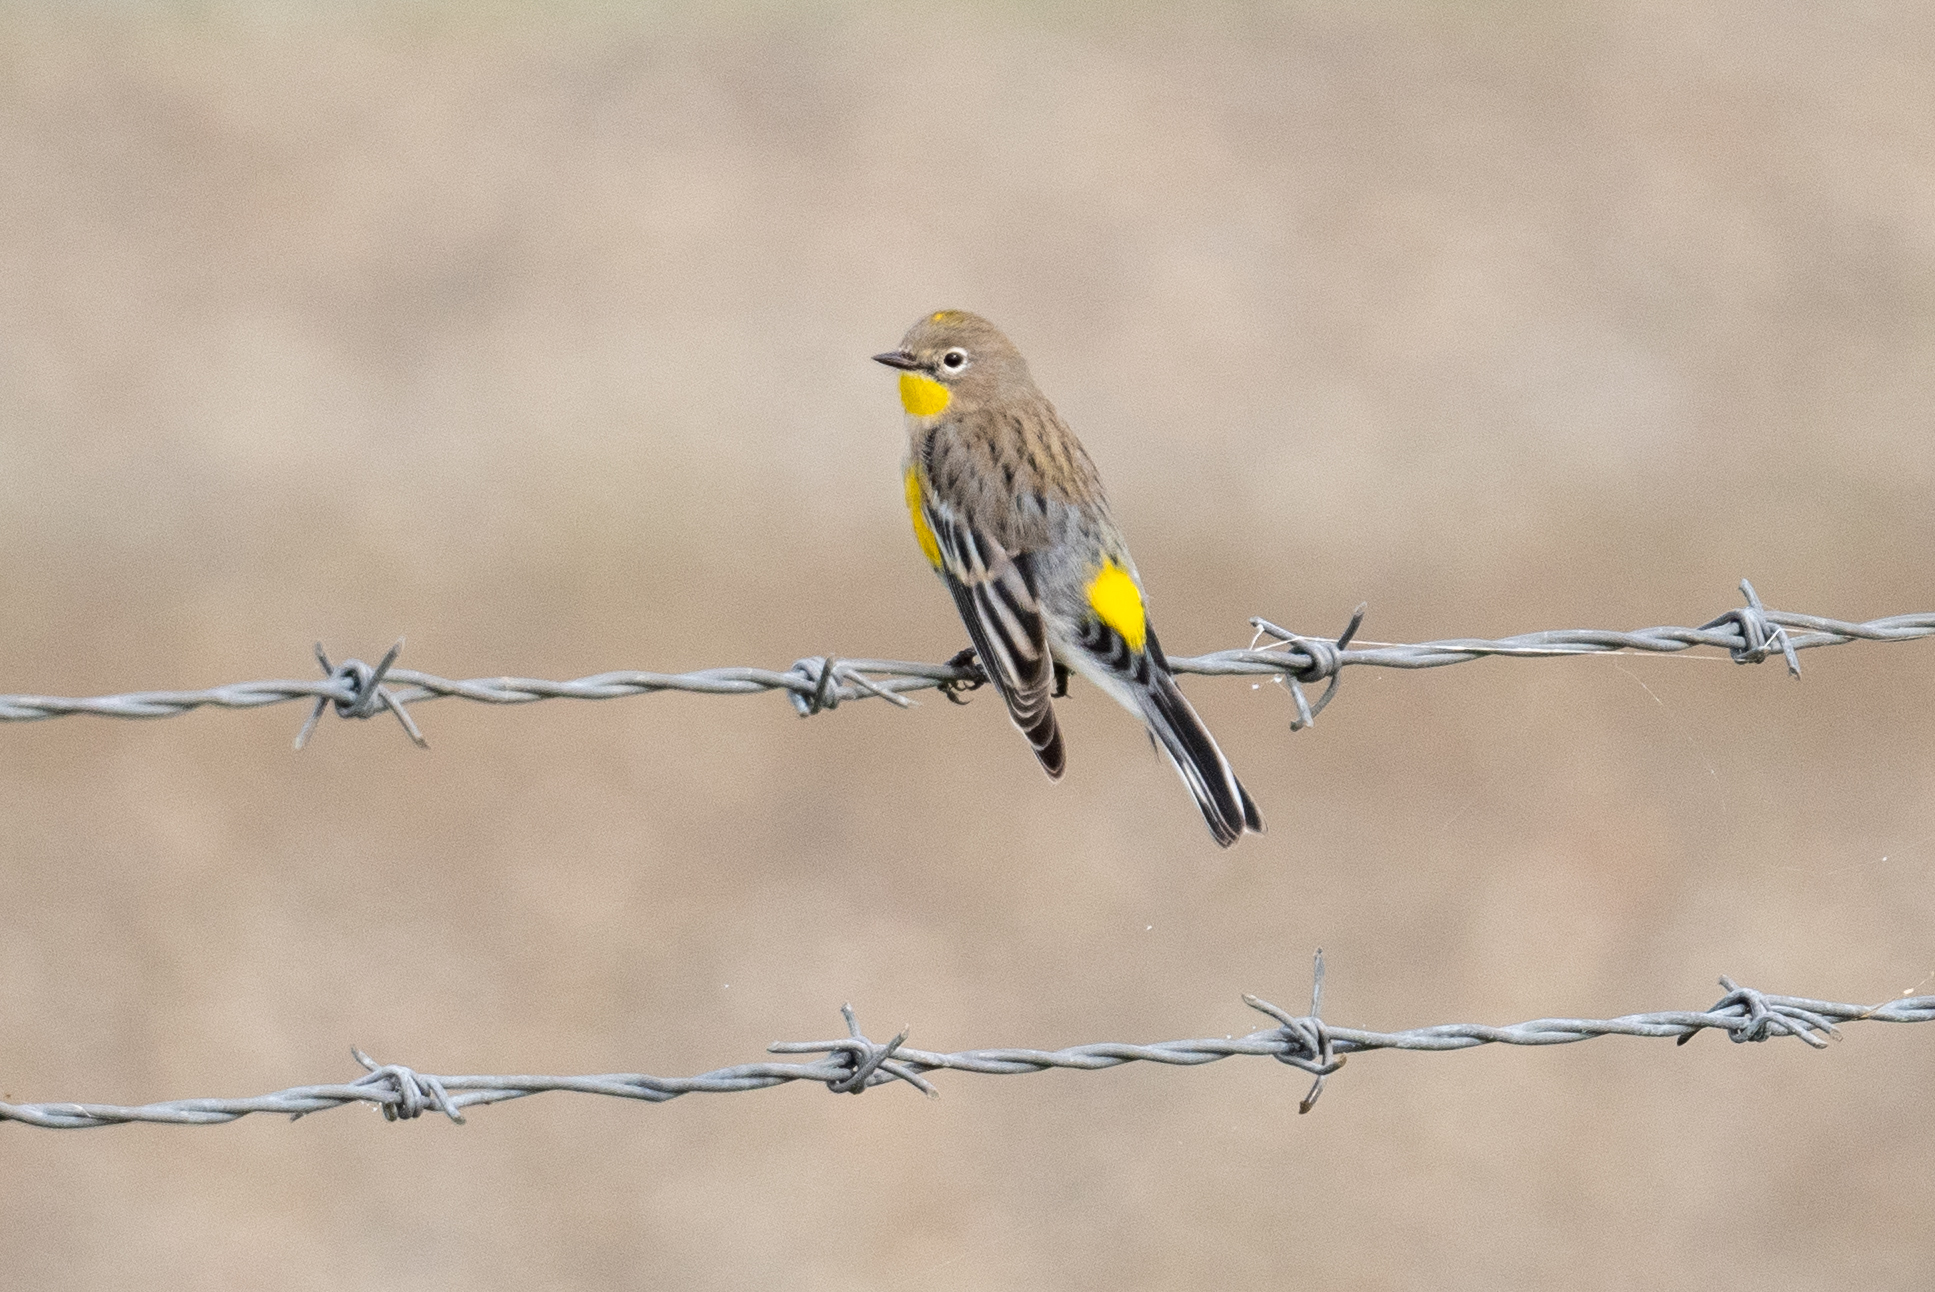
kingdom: Animalia
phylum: Chordata
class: Aves
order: Passeriformes
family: Parulidae
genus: Setophaga
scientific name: Setophaga coronata
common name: Myrtle warbler
